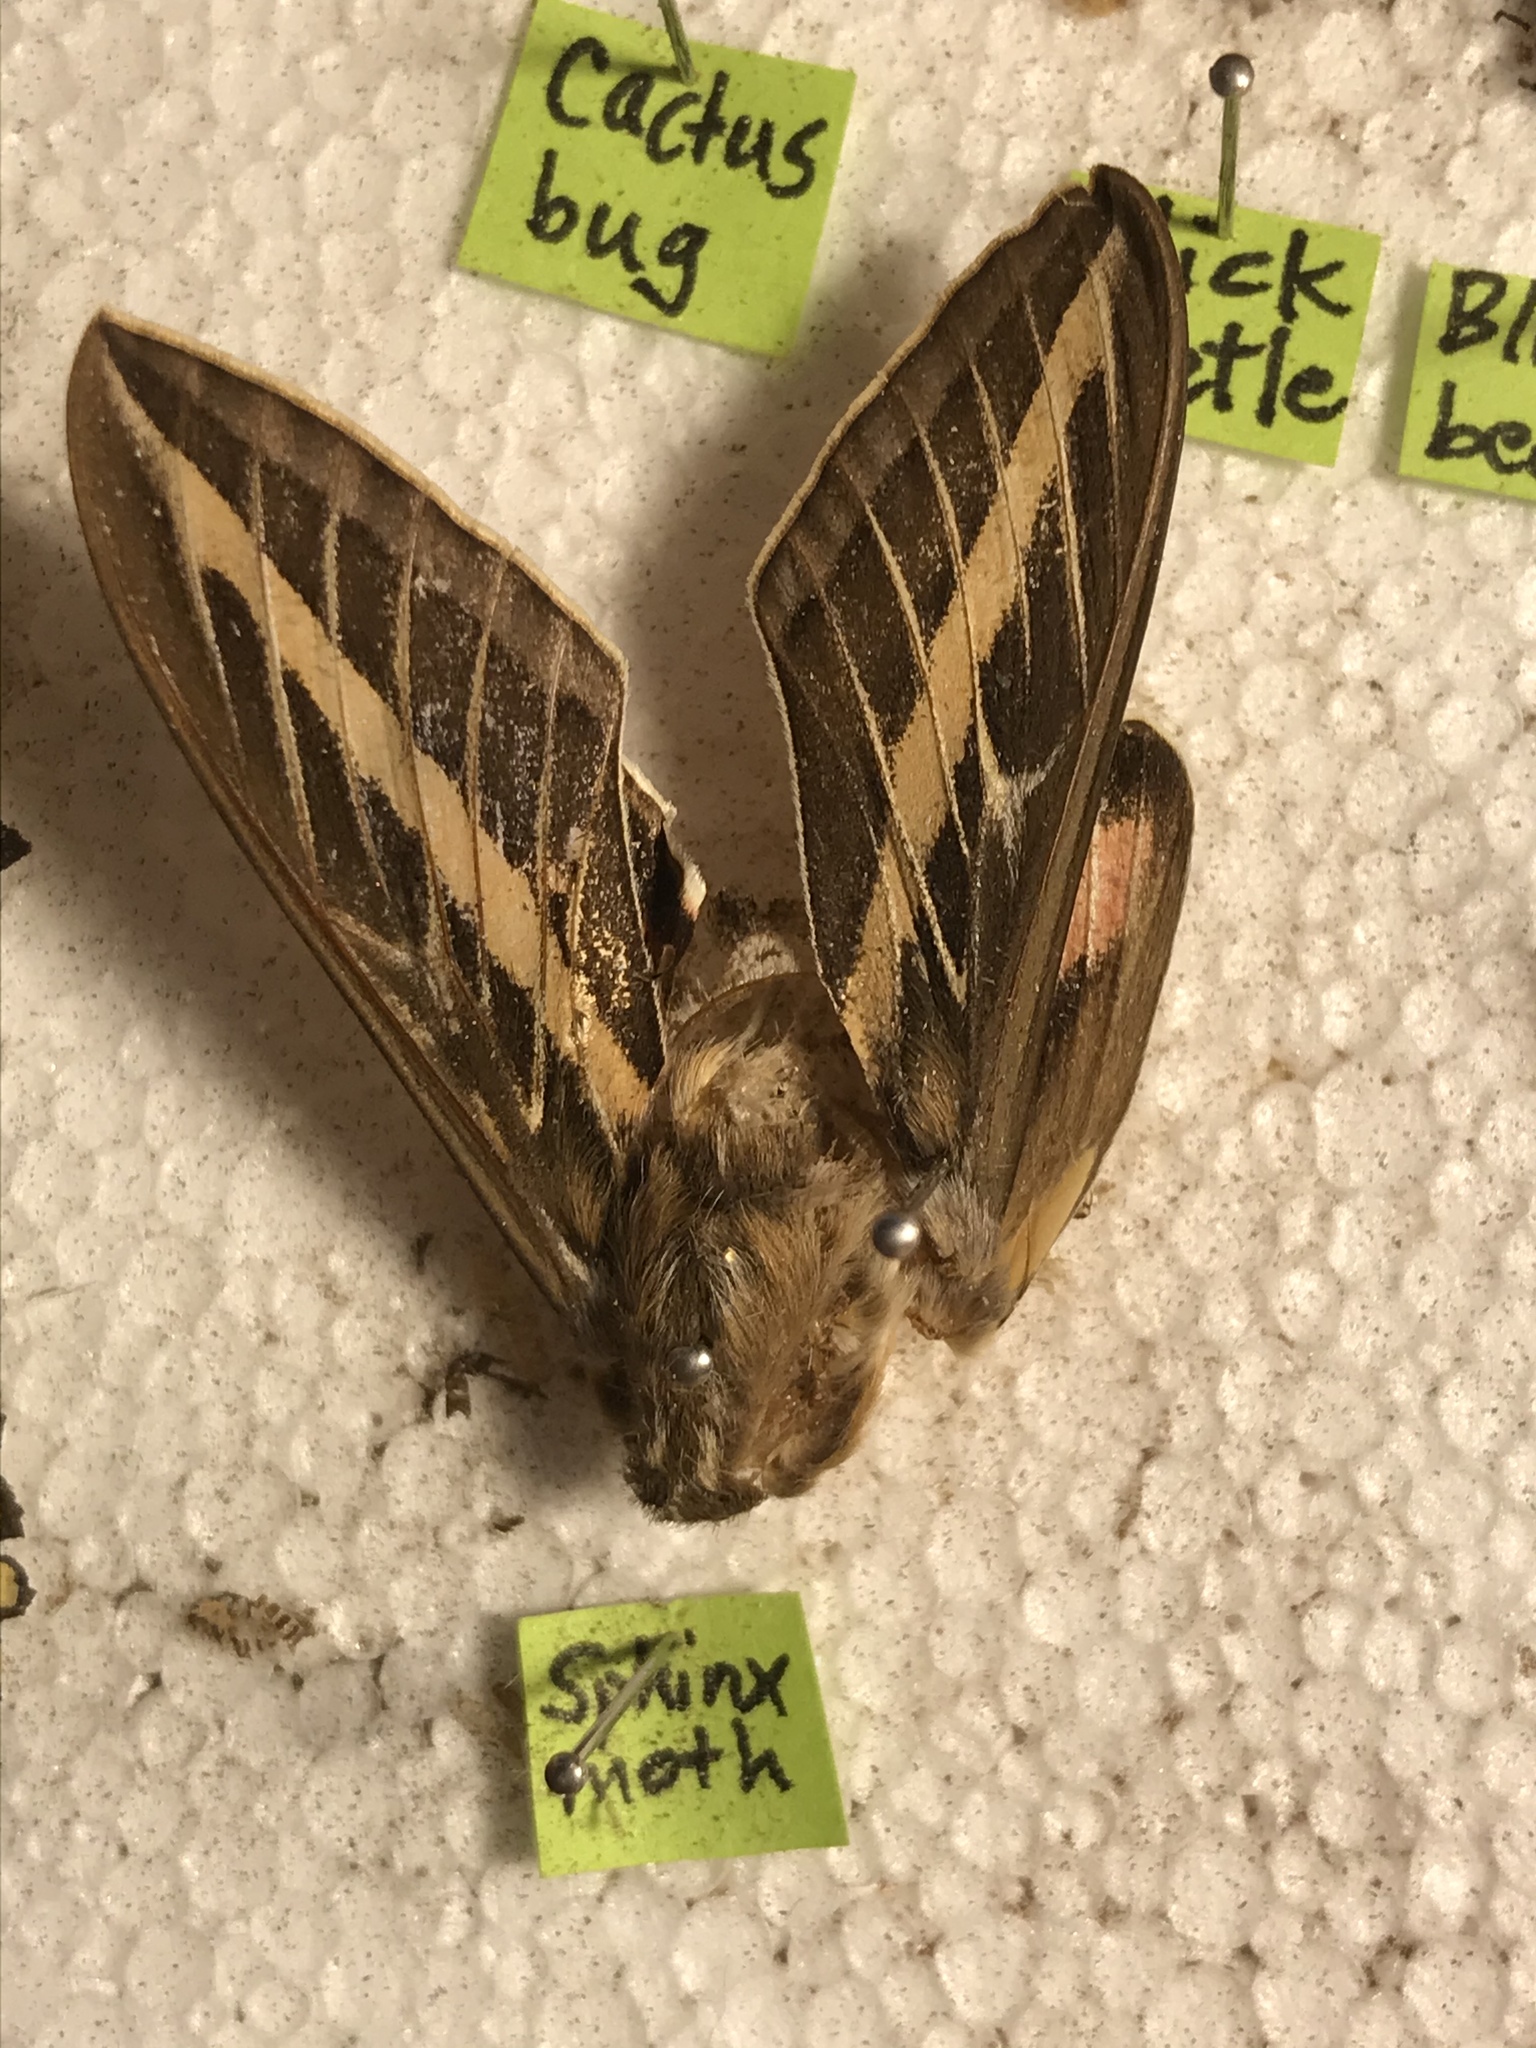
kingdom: Animalia
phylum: Arthropoda
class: Insecta
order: Lepidoptera
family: Sphingidae
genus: Hyles
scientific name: Hyles lineata
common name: White-lined sphinx
